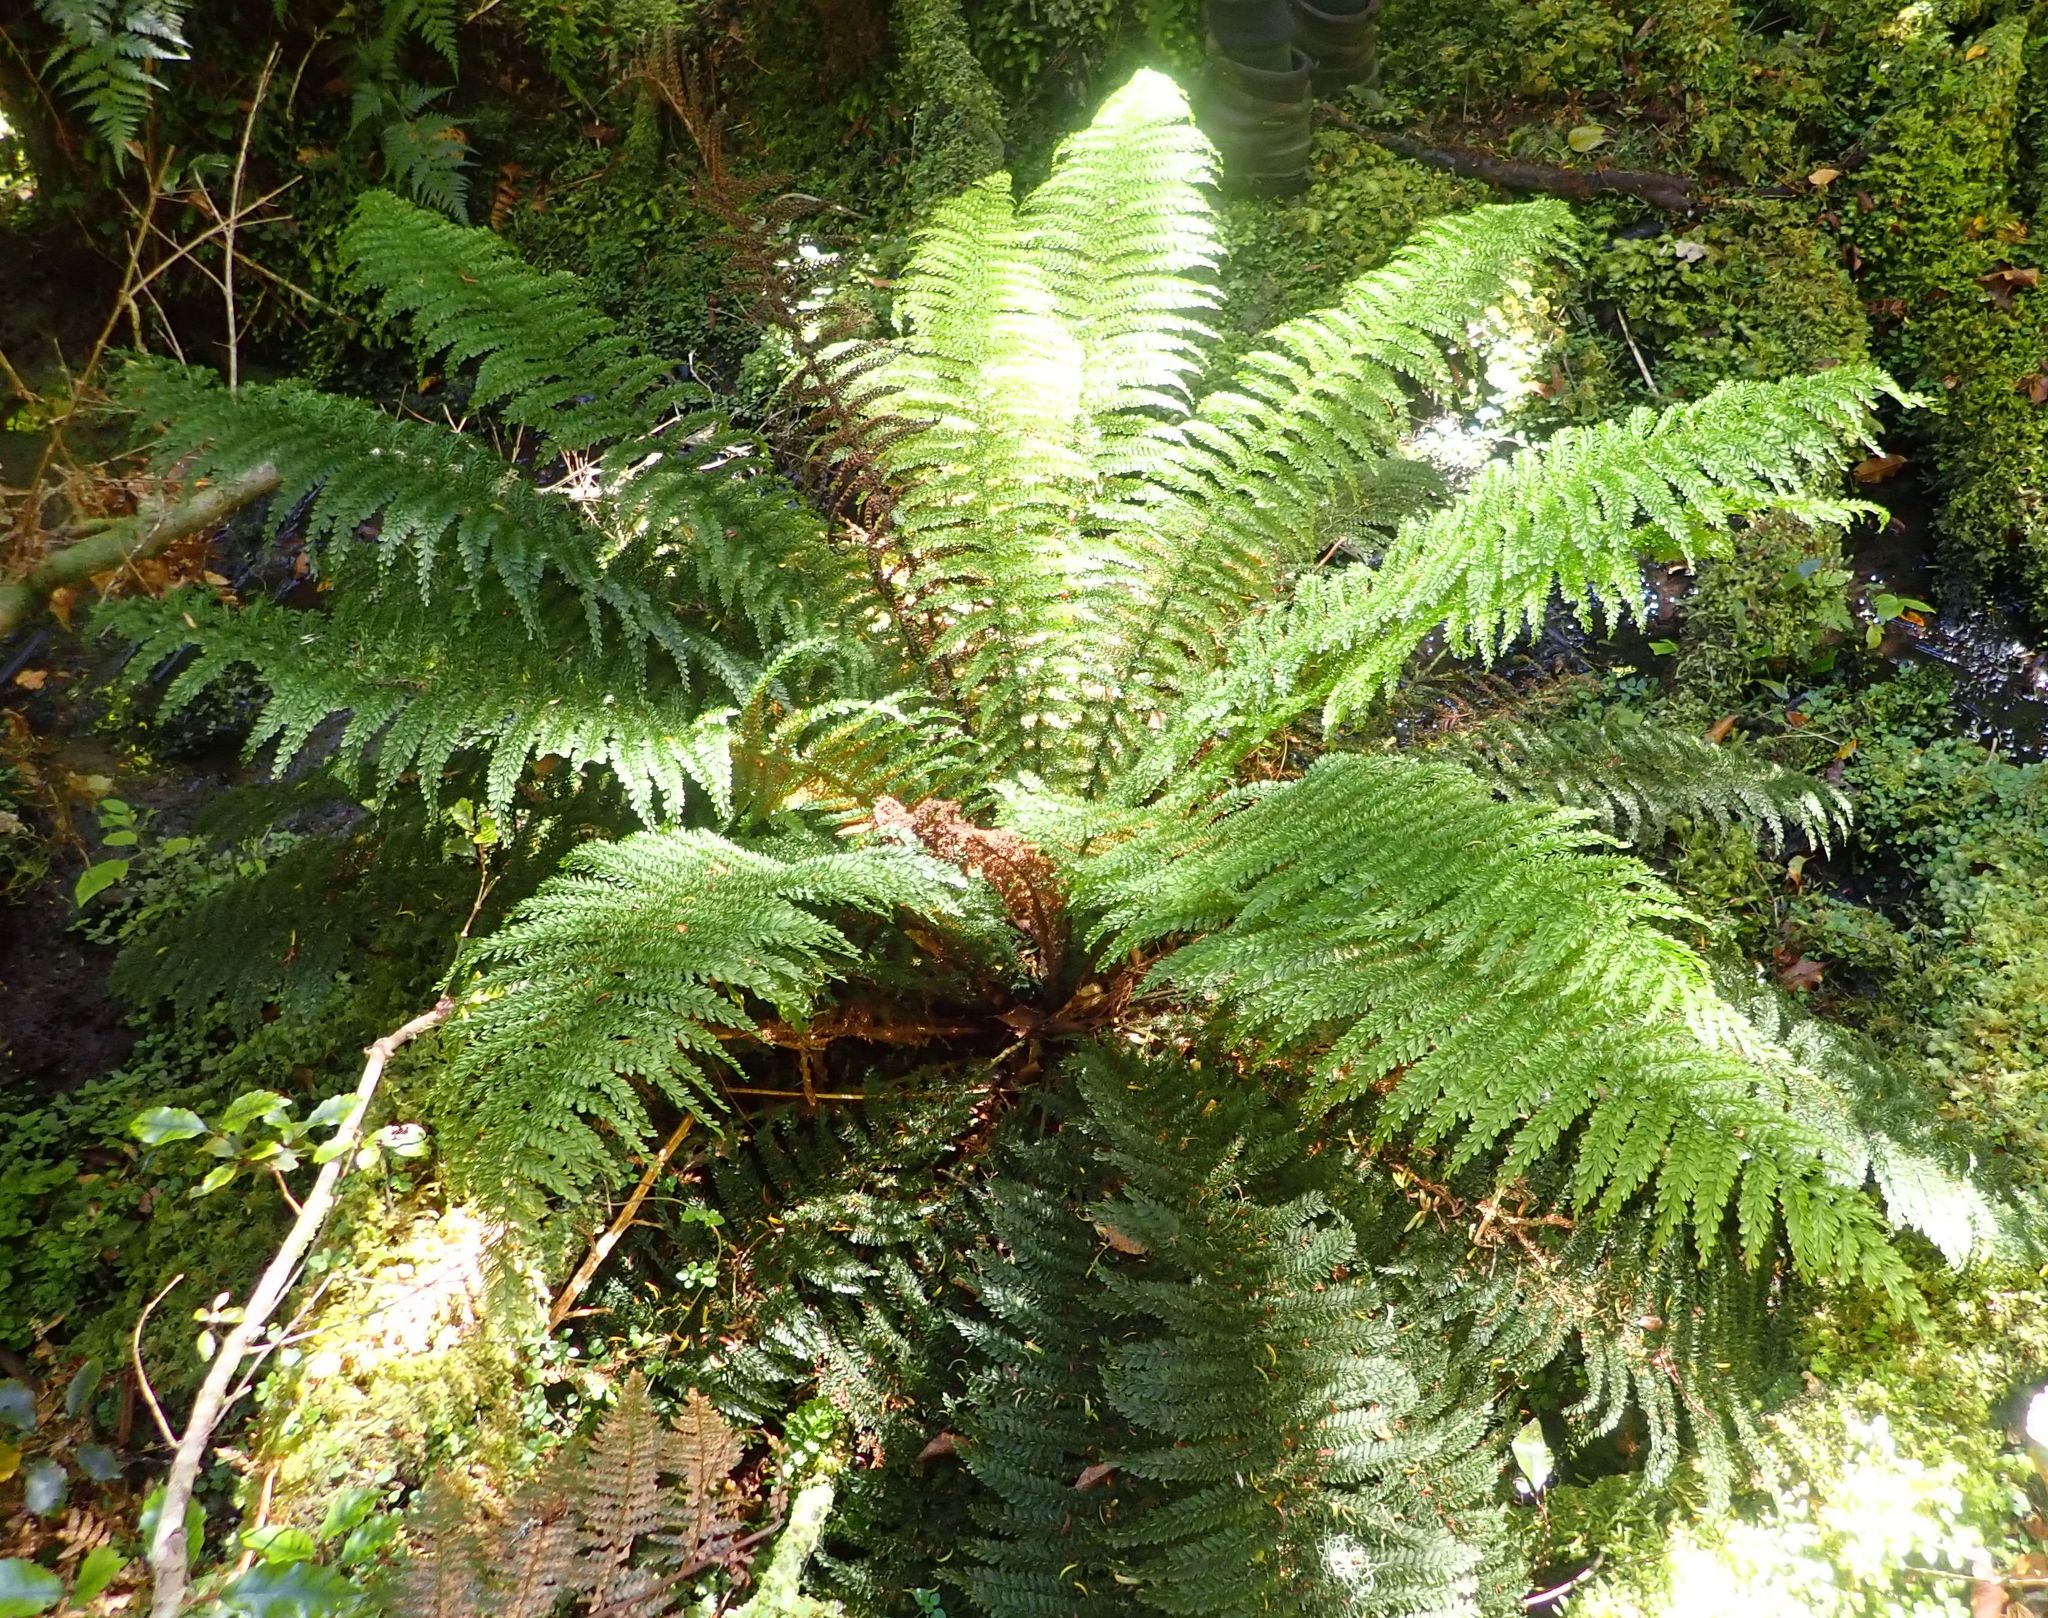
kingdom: Plantae
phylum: Tracheophyta
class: Polypodiopsida
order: Osmundales
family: Osmundaceae
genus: Leptopteris
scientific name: Leptopteris superba
